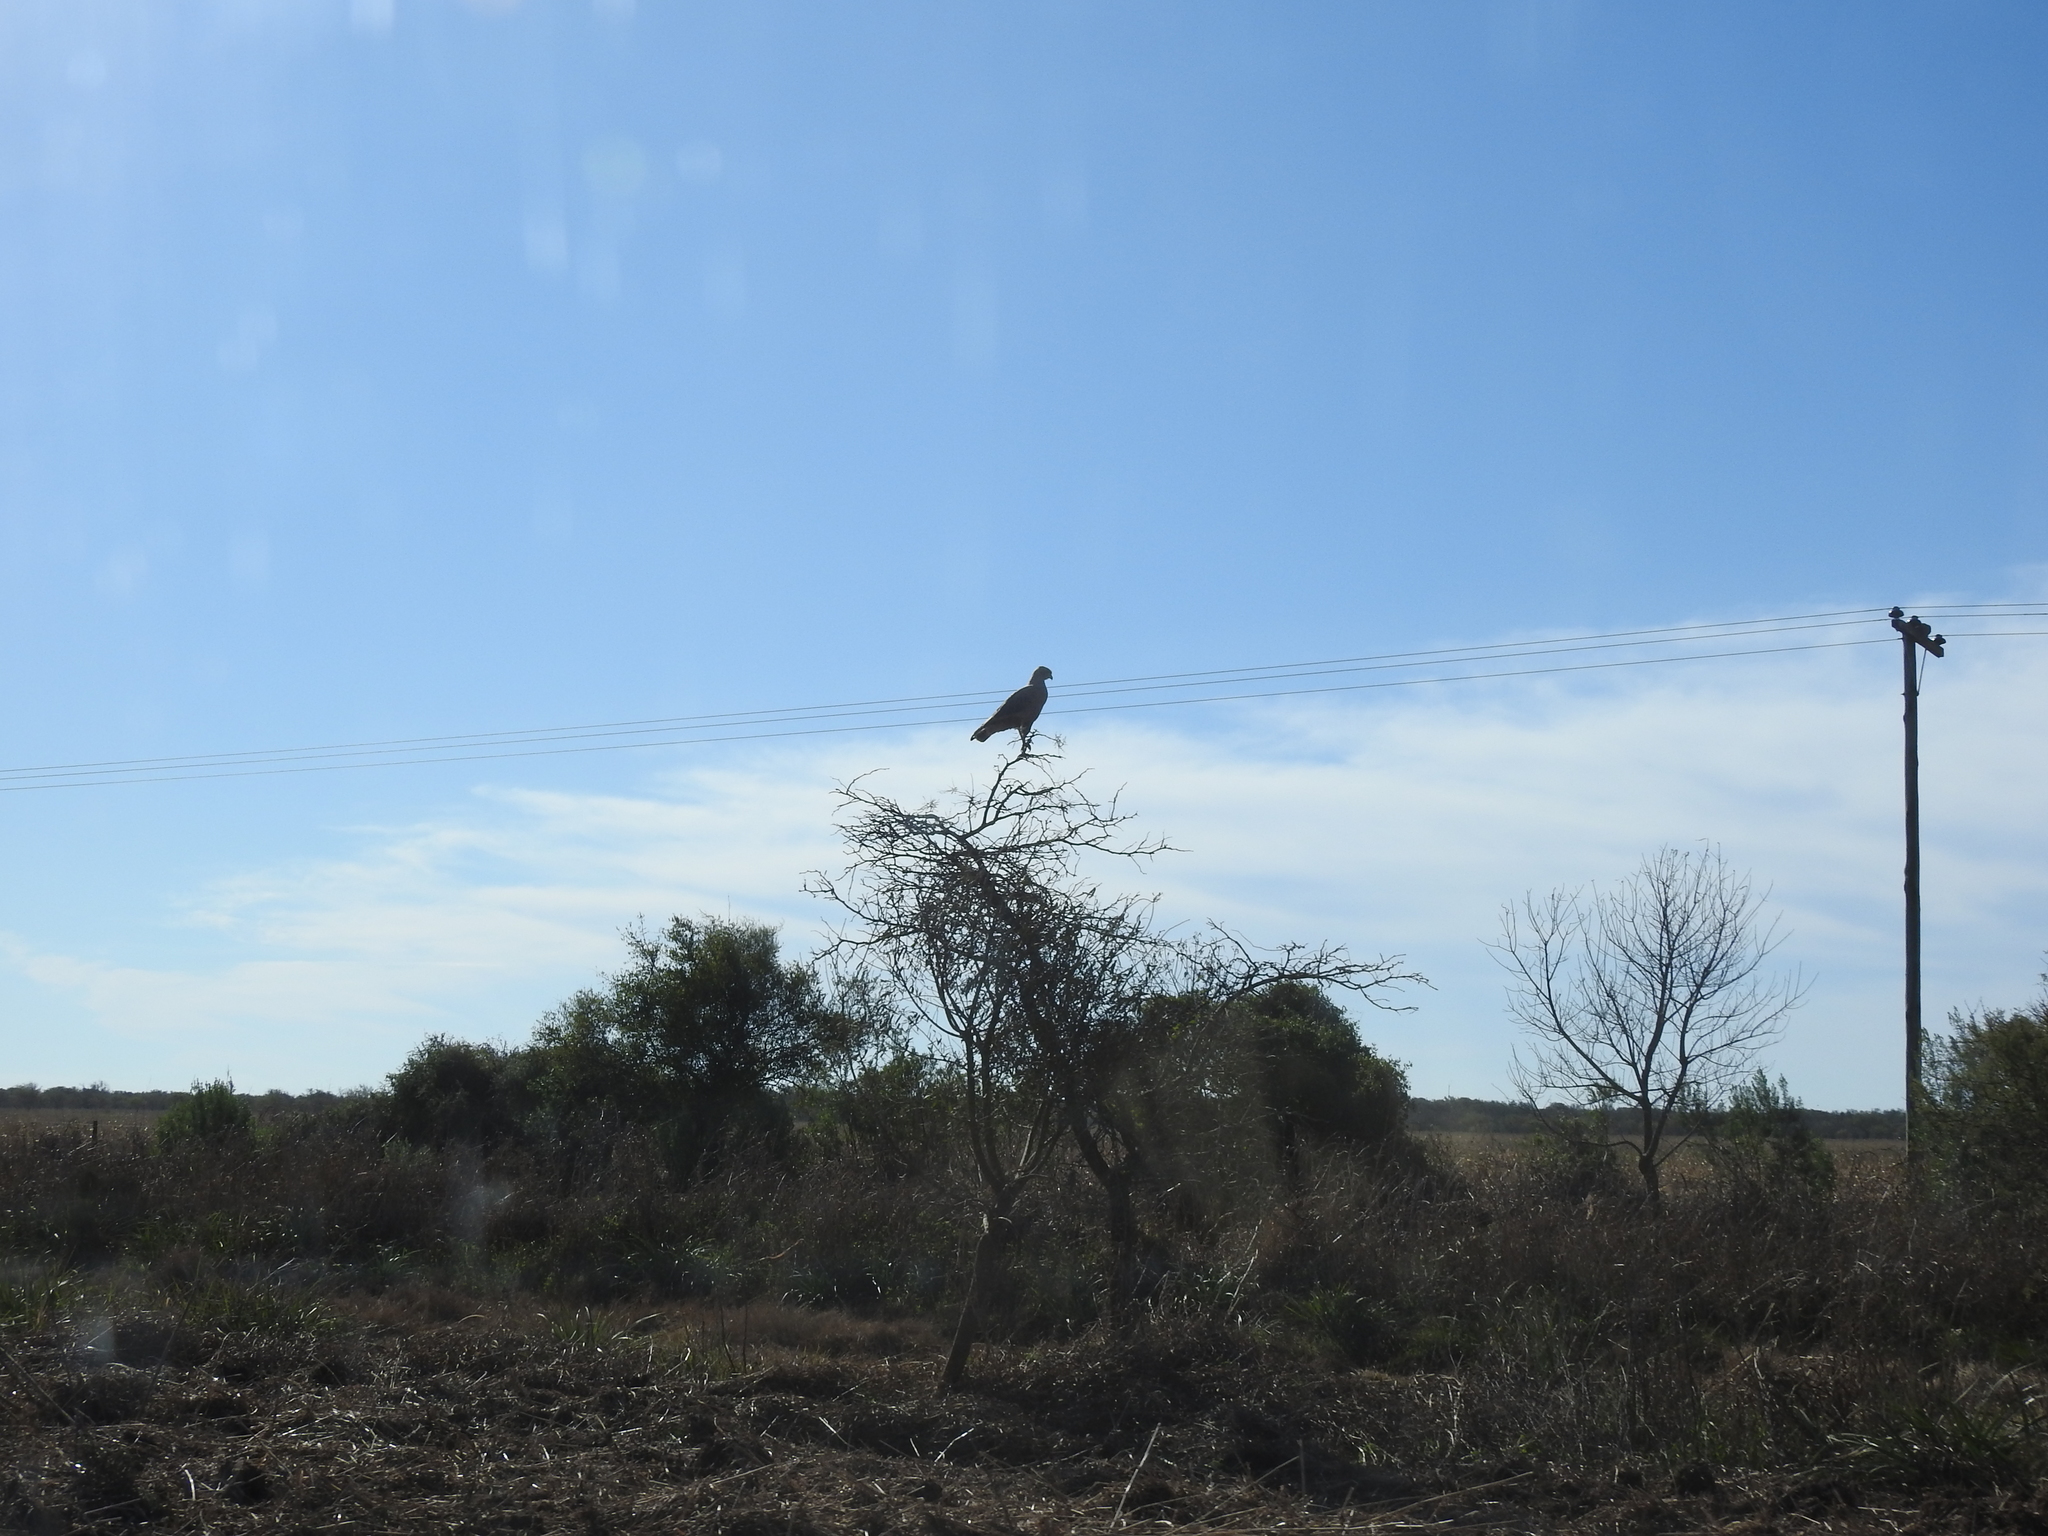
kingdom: Animalia
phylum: Chordata
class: Aves
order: Accipitriformes
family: Accipitridae
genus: Buteogallus
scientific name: Buteogallus meridionalis
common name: Savanna hawk
